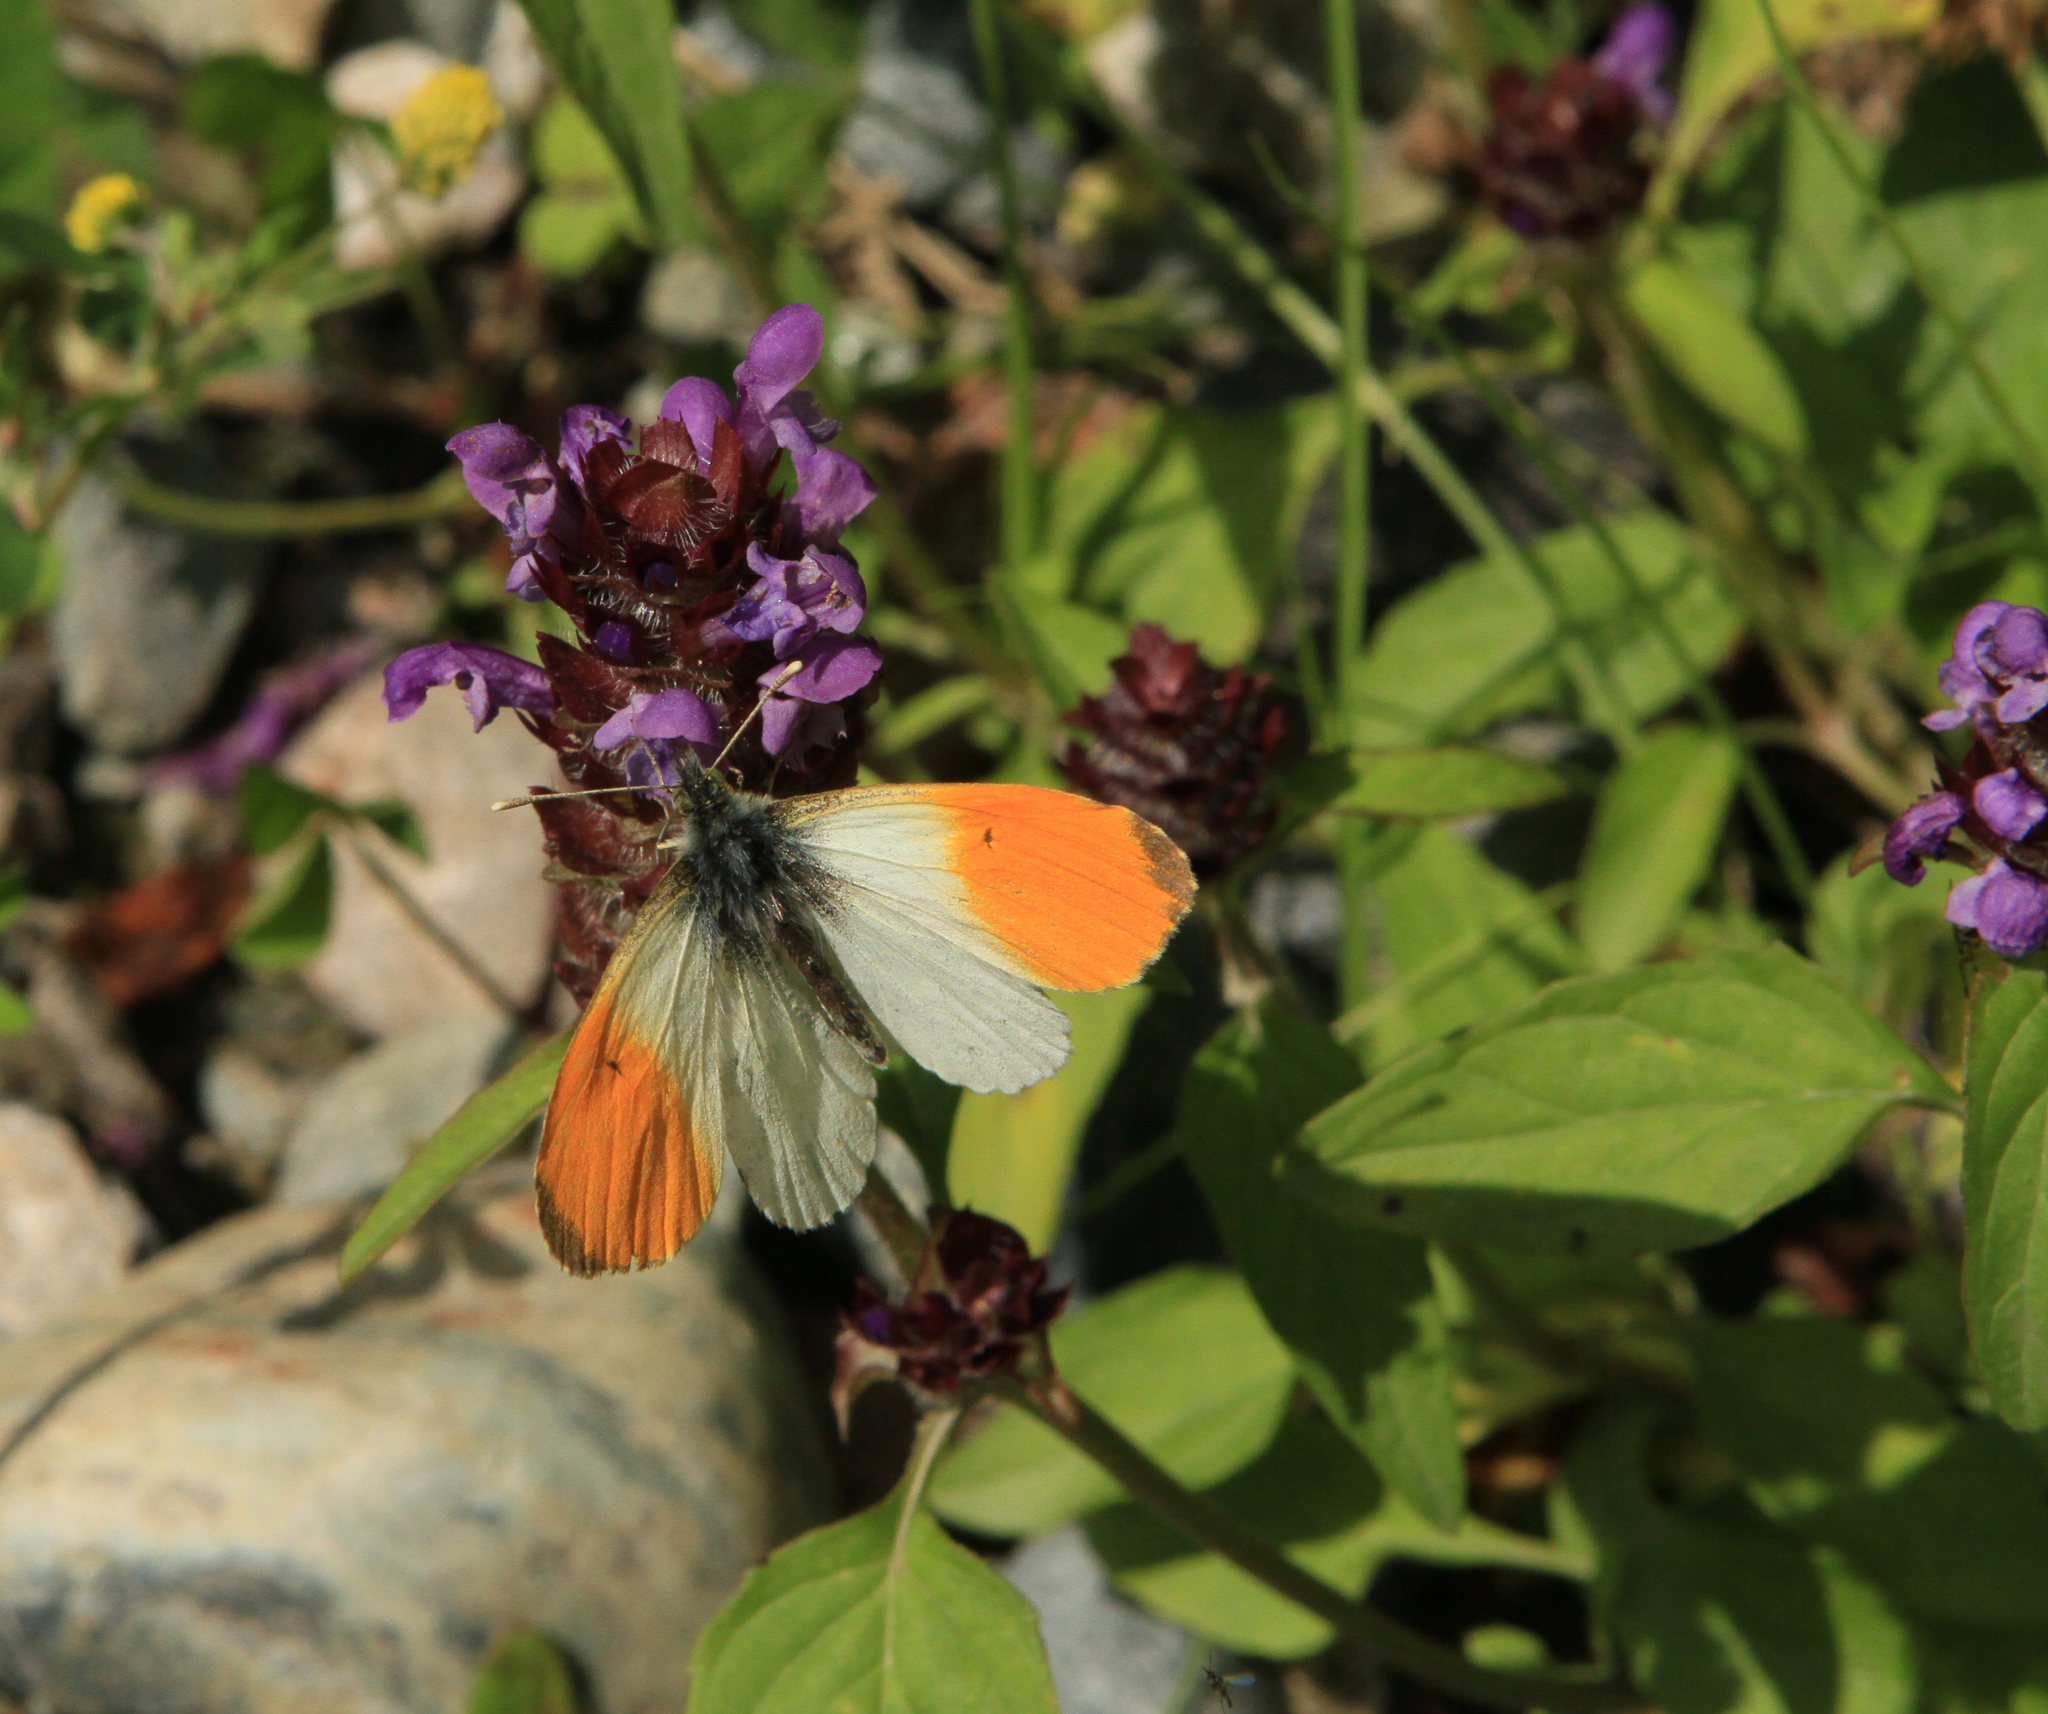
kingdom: Plantae
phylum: Tracheophyta
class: Magnoliopsida
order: Lamiales
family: Lamiaceae
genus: Prunella
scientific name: Prunella vulgaris
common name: Heal-all
